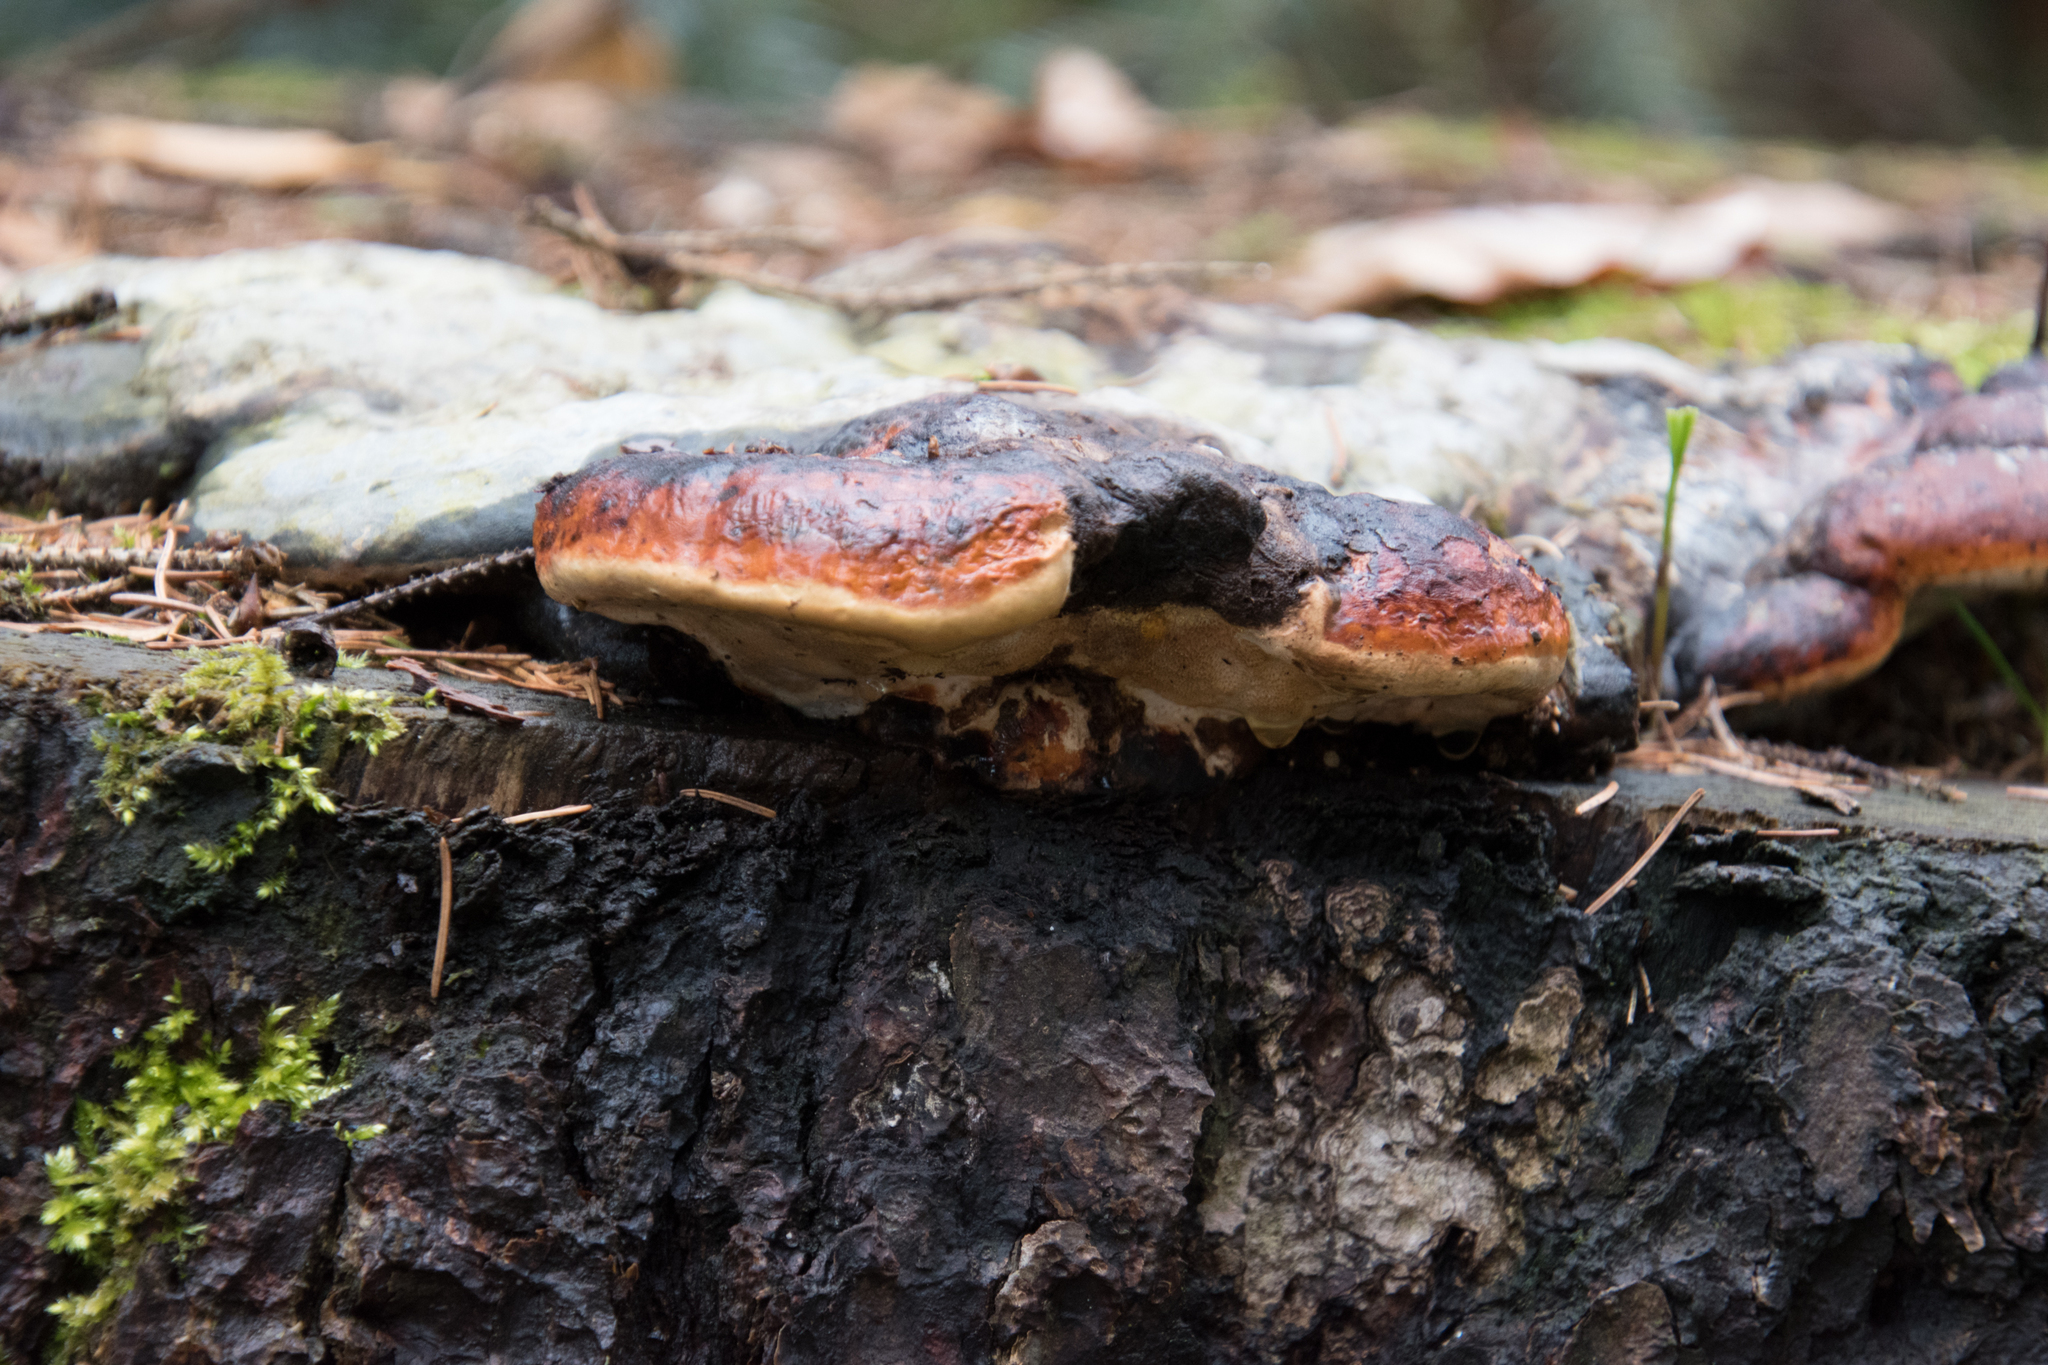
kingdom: Fungi
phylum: Basidiomycota
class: Agaricomycetes
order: Polyporales
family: Fomitopsidaceae
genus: Fomitopsis
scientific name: Fomitopsis pinicola
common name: Red-belted bracket
